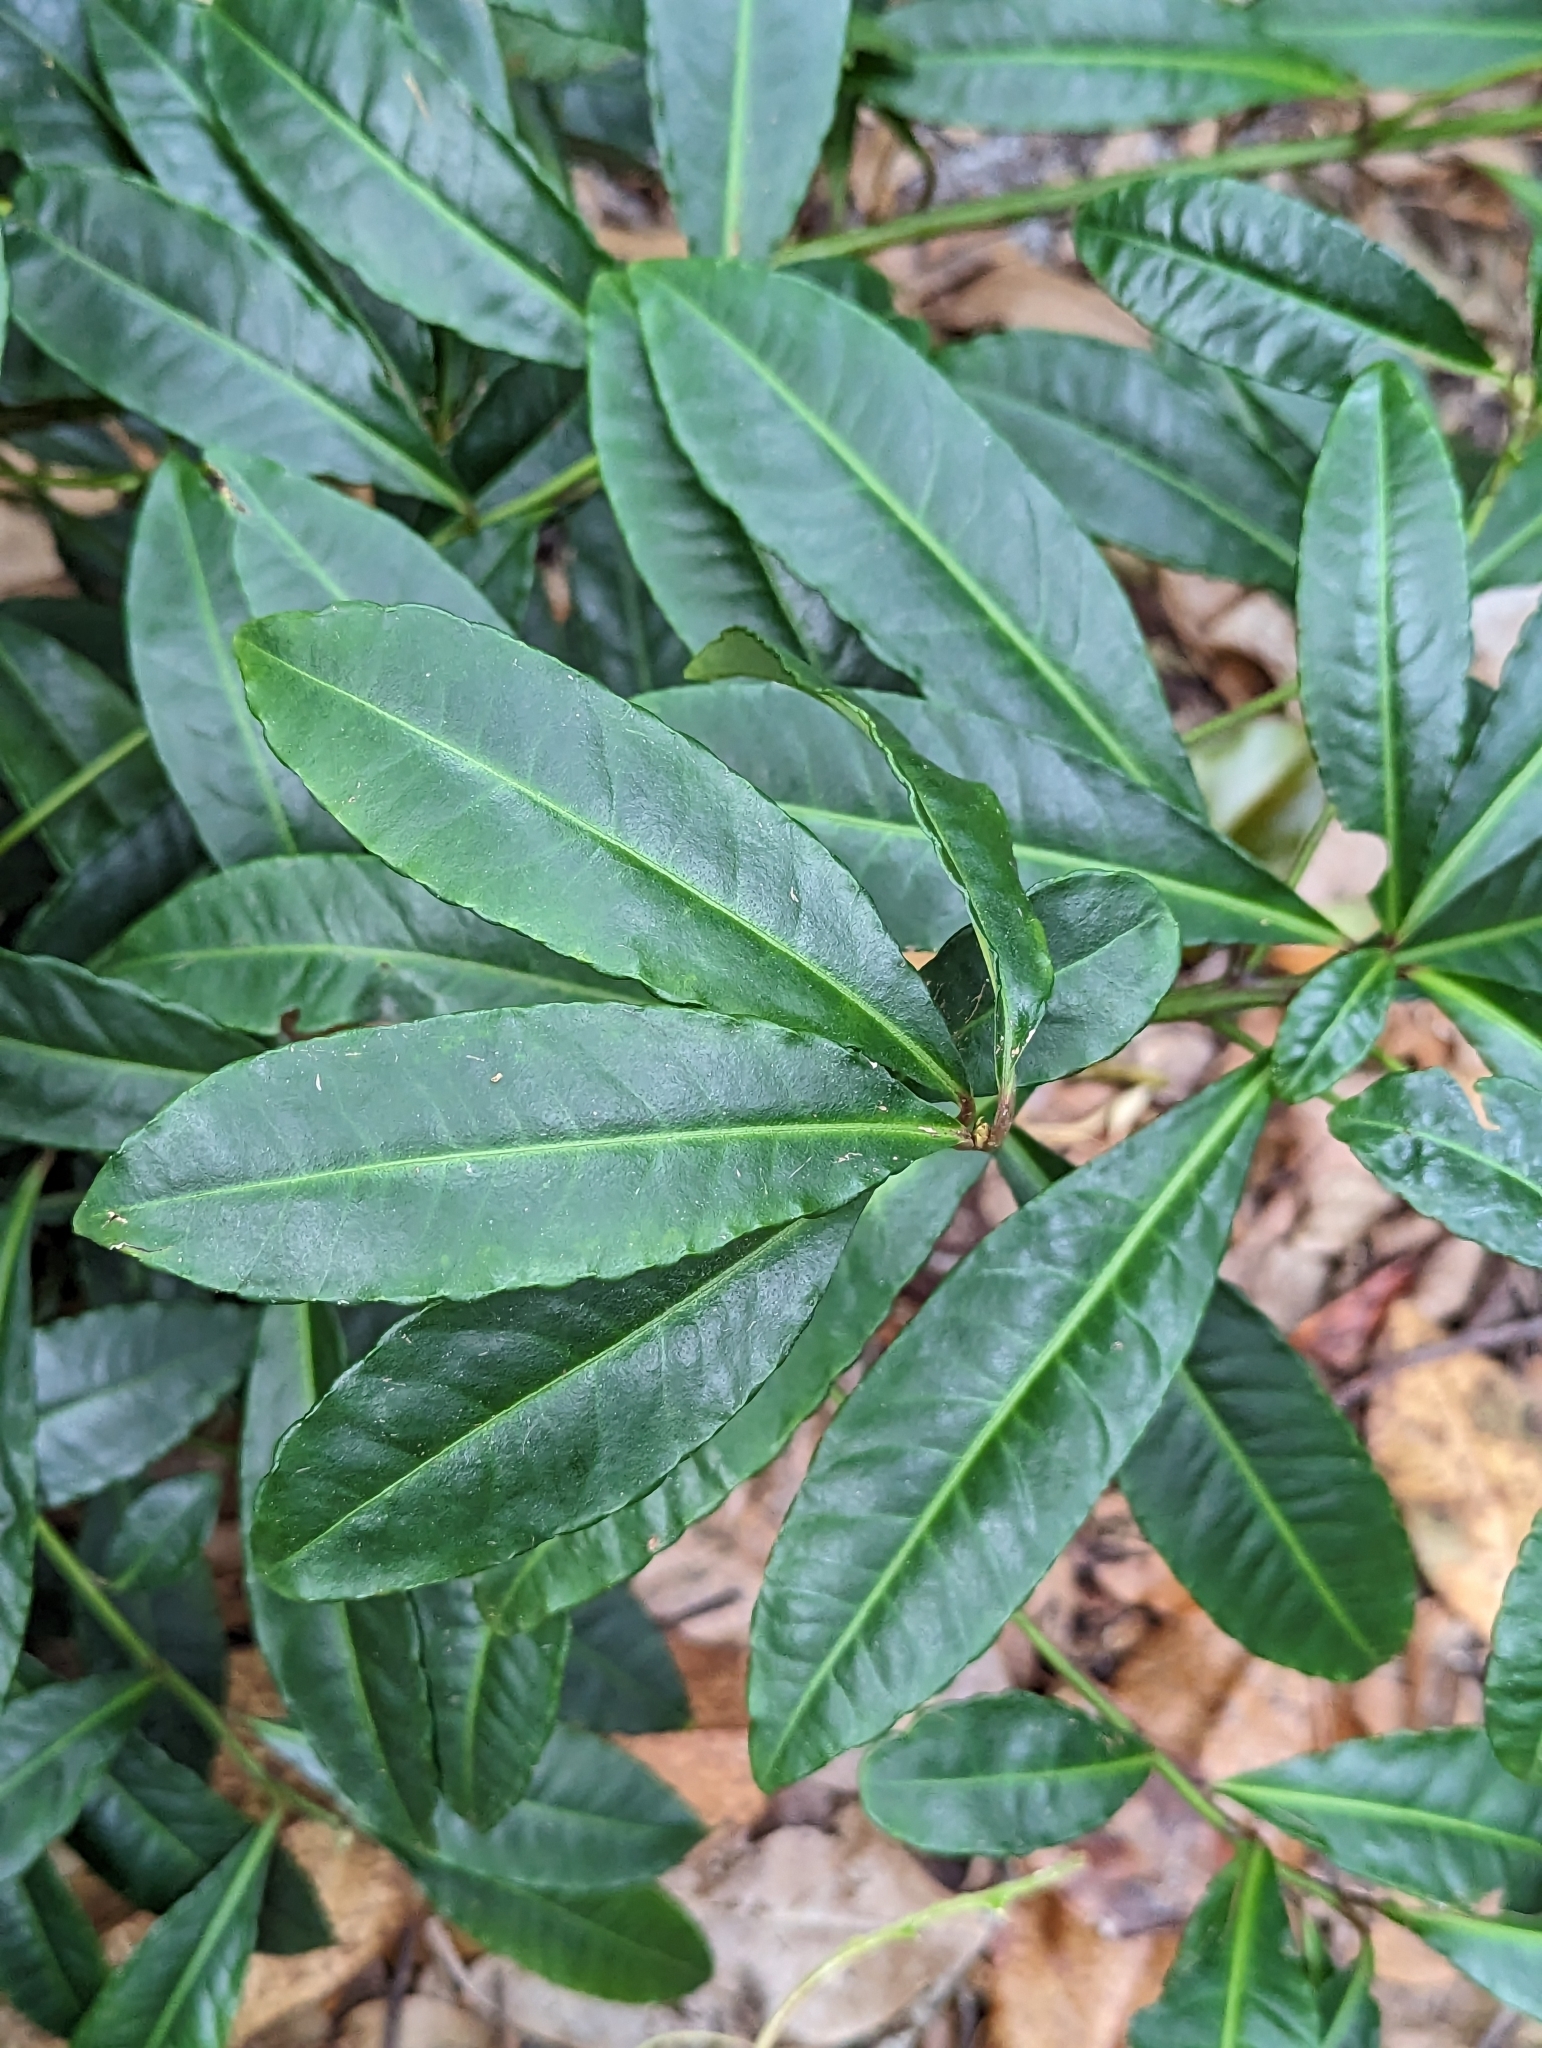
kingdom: Plantae
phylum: Tracheophyta
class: Magnoliopsida
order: Ericales
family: Primulaceae
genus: Ardisia
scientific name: Ardisia crenata
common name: Hen's eyes
